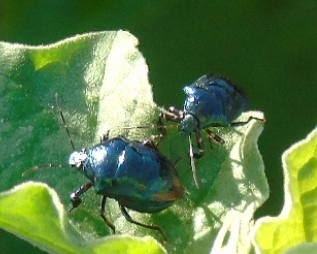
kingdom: Animalia
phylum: Arthropoda
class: Insecta
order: Hemiptera
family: Pentatomidae
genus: Stiretrus
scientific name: Stiretrus
